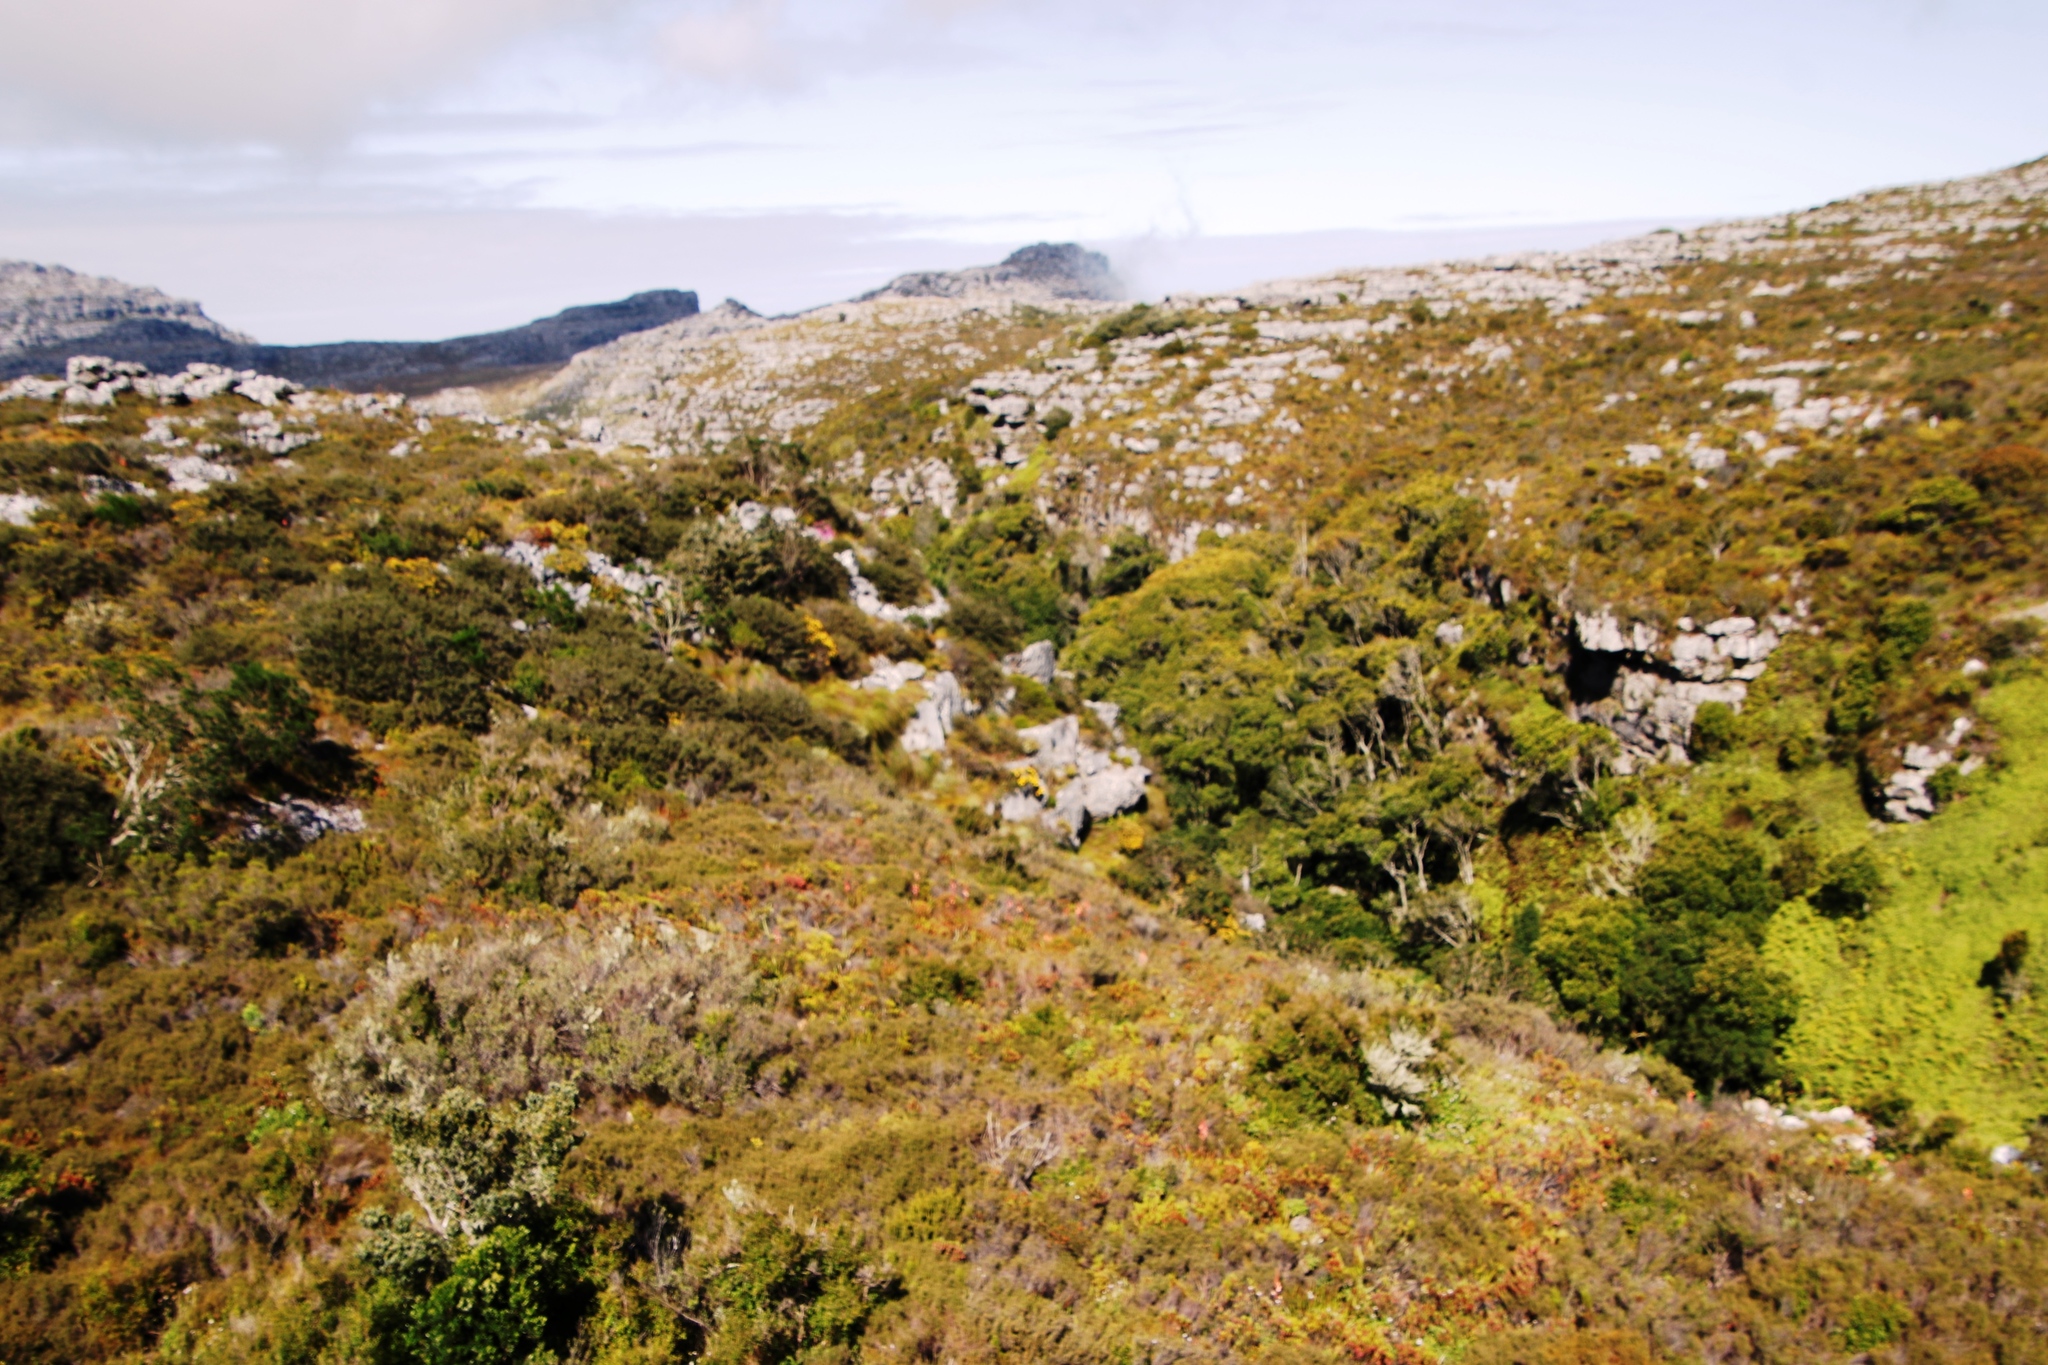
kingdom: Plantae
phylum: Tracheophyta
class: Magnoliopsida
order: Oxalidales
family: Cunoniaceae
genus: Cunonia
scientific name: Cunonia capensis
